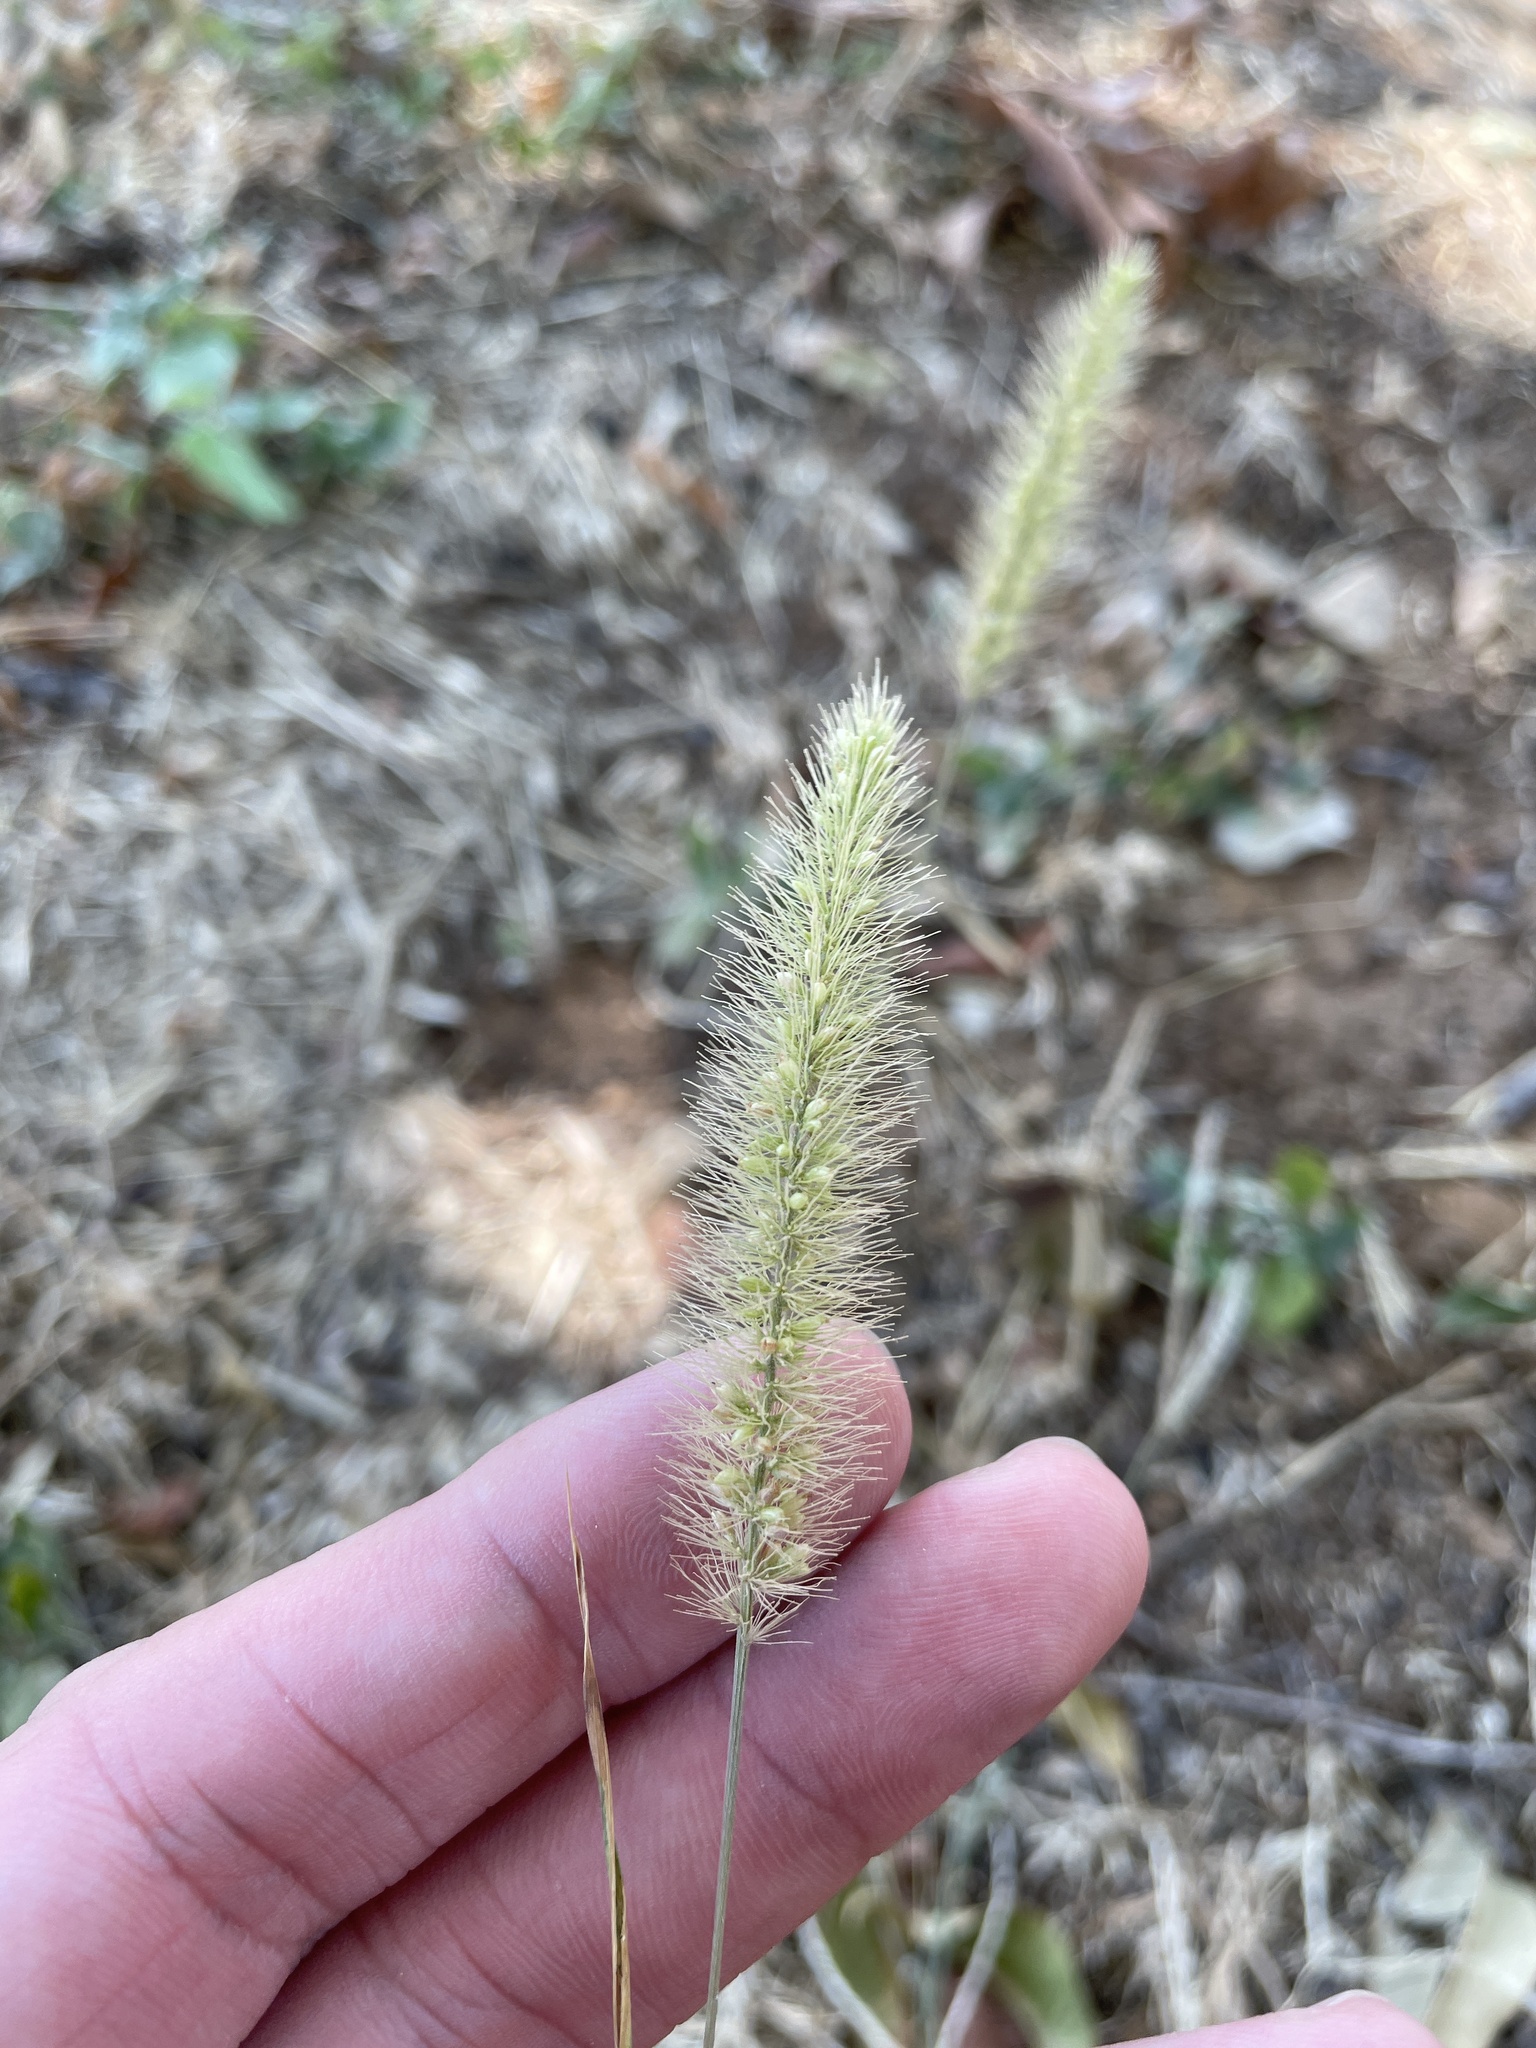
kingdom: Plantae
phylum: Tracheophyta
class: Liliopsida
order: Poales
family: Poaceae
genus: Setaria
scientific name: Setaria viridis
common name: Green bristlegrass
